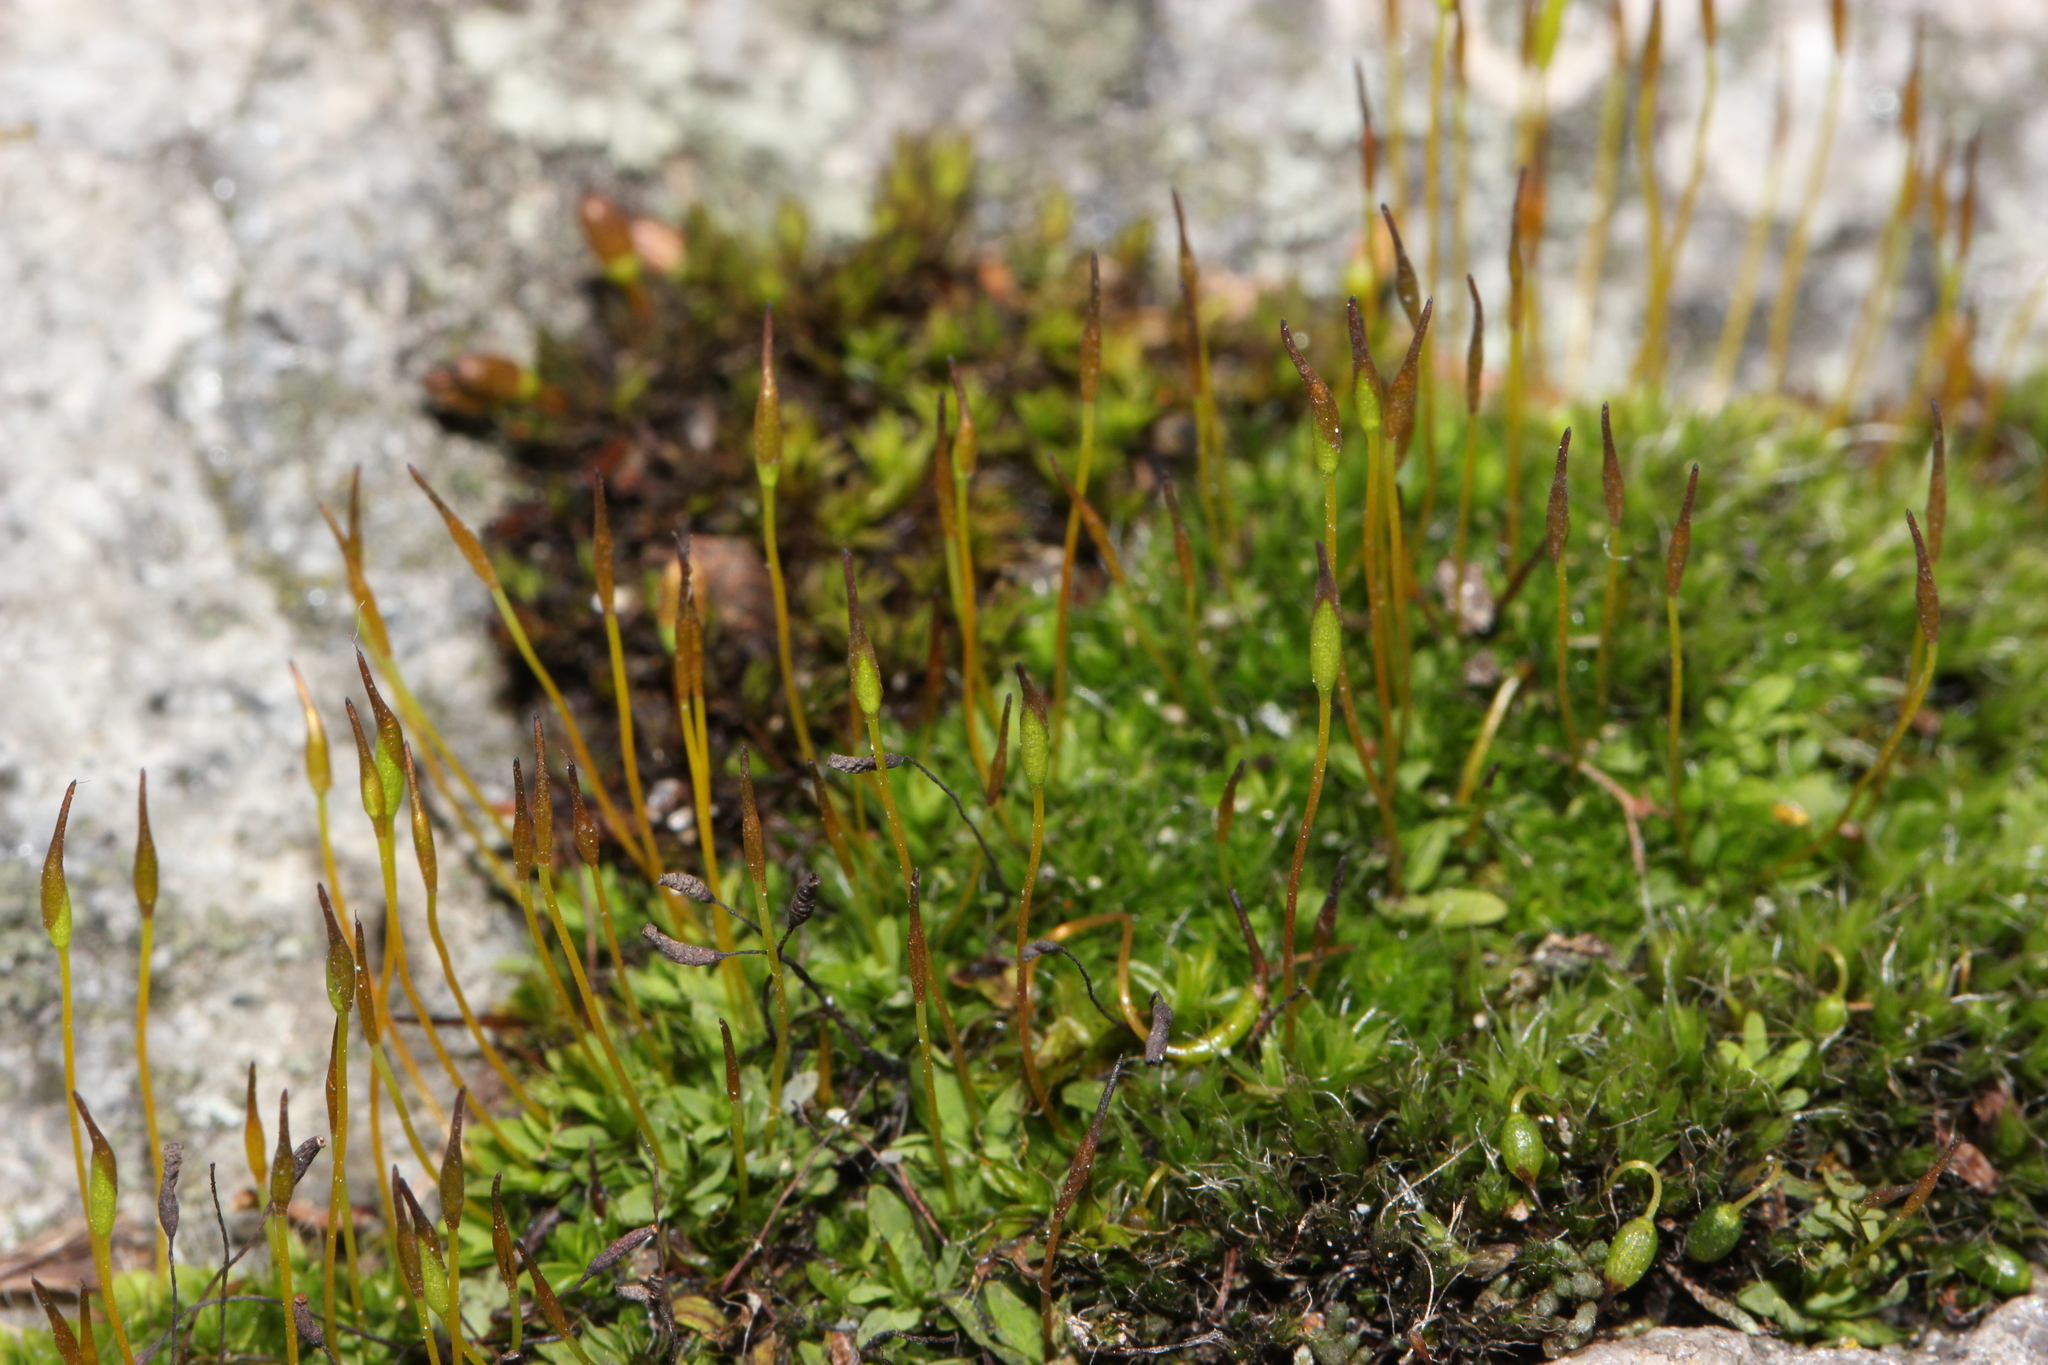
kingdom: Plantae
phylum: Bryophyta
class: Bryopsida
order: Pottiales
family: Pottiaceae
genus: Tortula
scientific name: Tortula muralis
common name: Wall screw-moss
